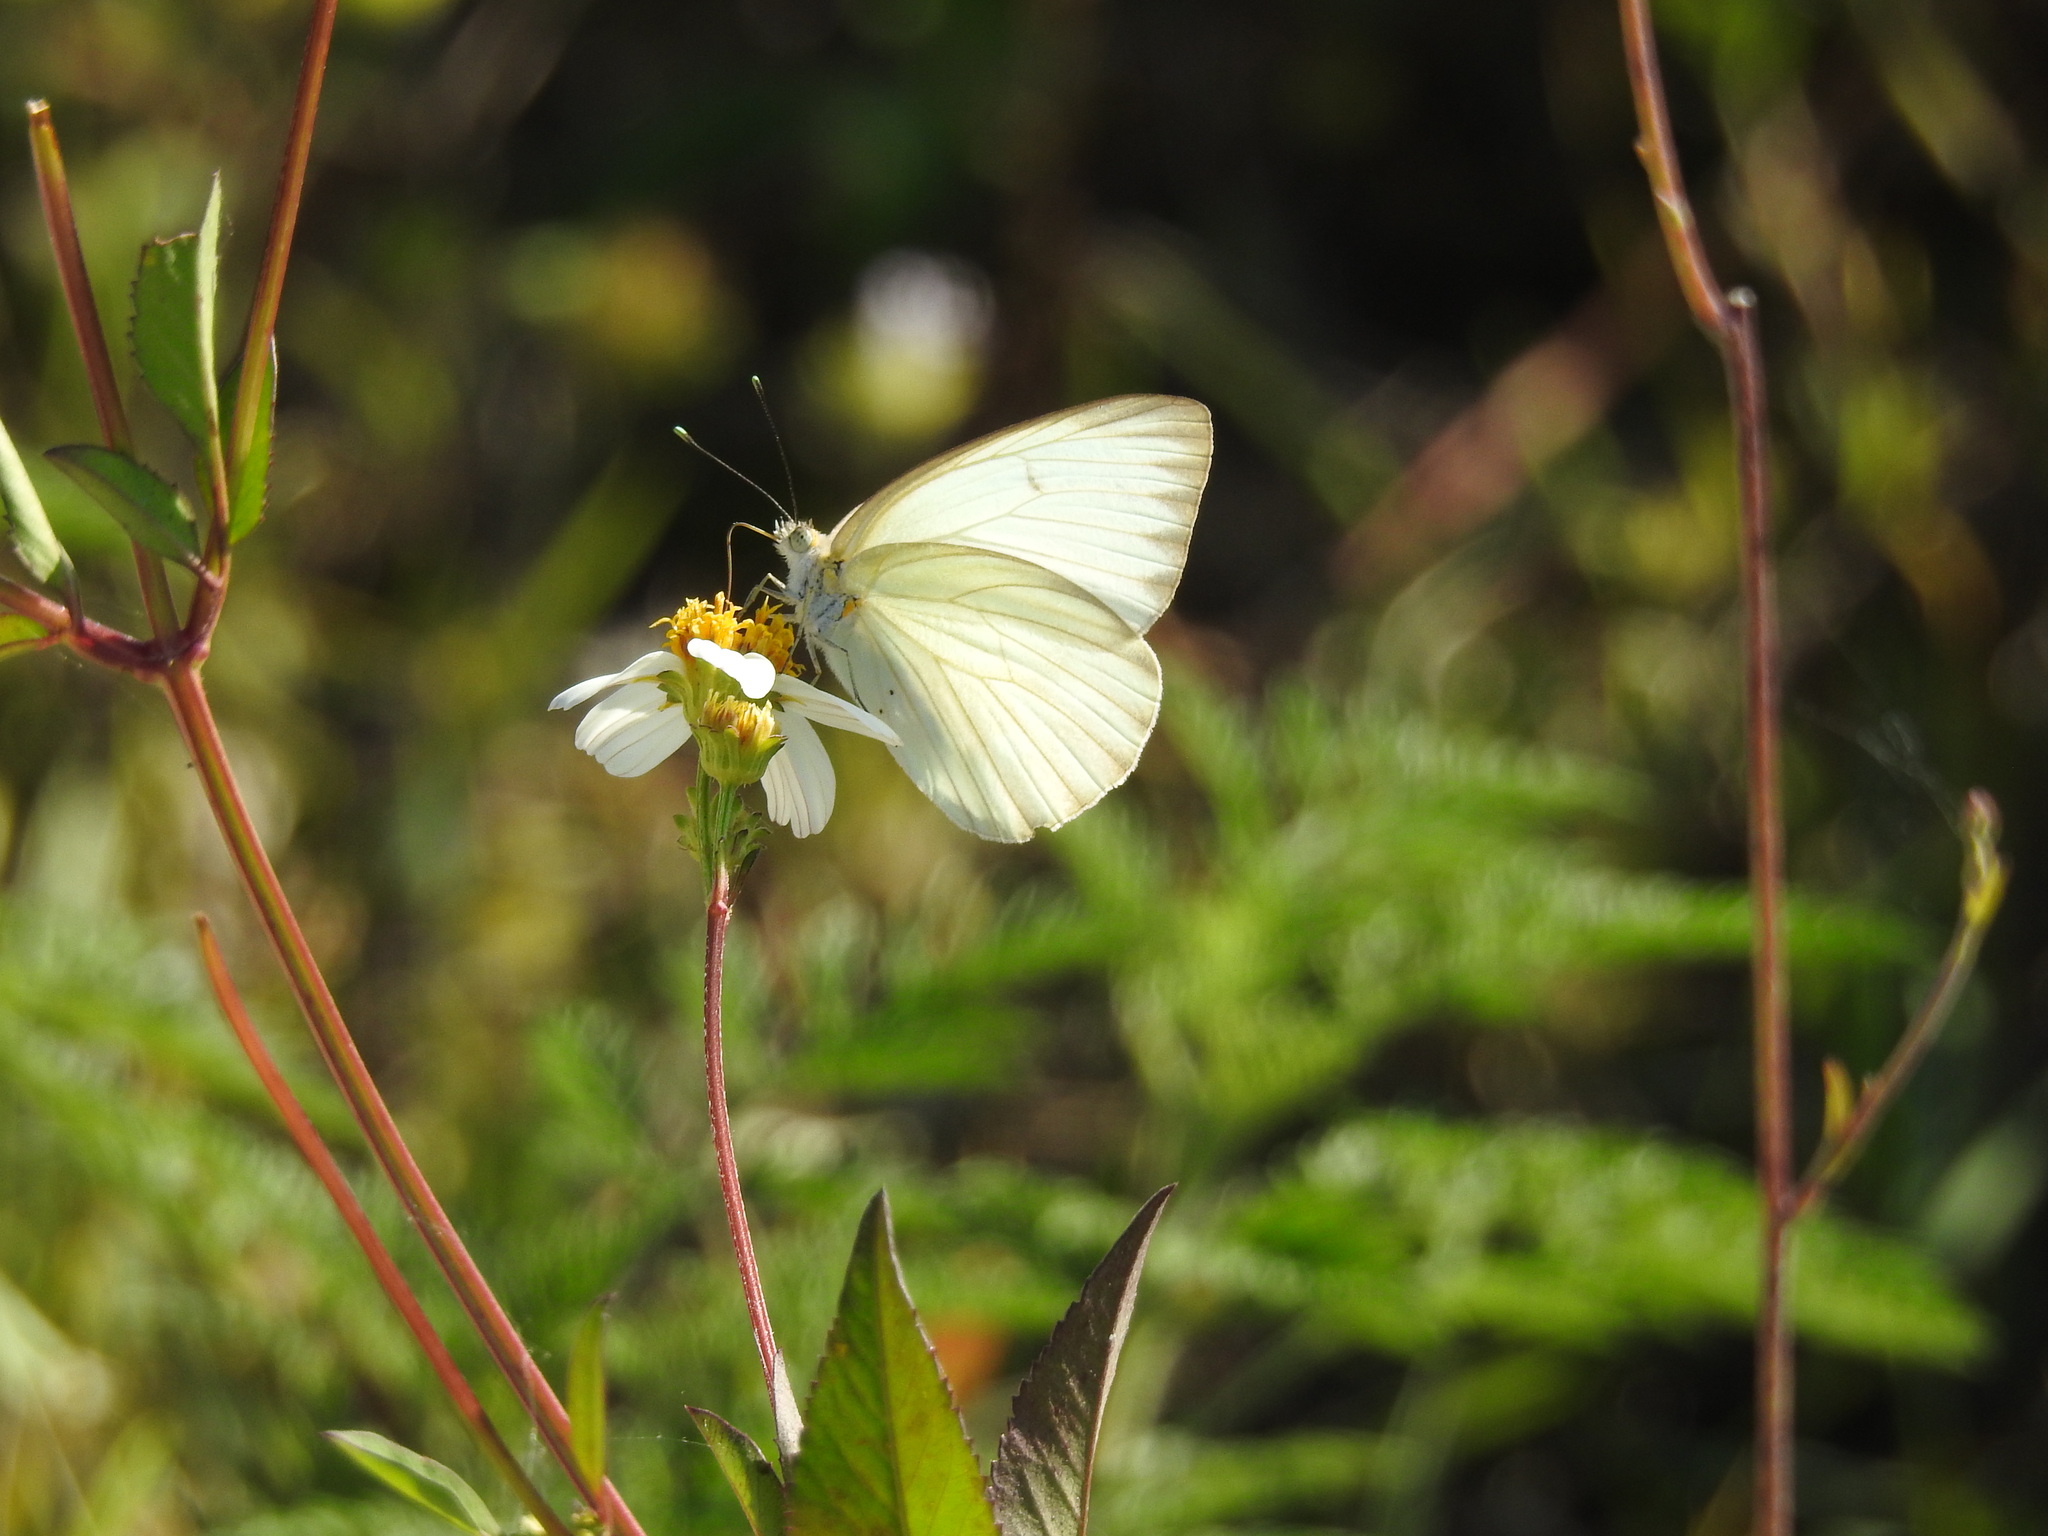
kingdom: Animalia
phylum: Arthropoda
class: Insecta
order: Lepidoptera
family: Pieridae
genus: Ascia
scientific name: Ascia monuste
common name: Great southern white
